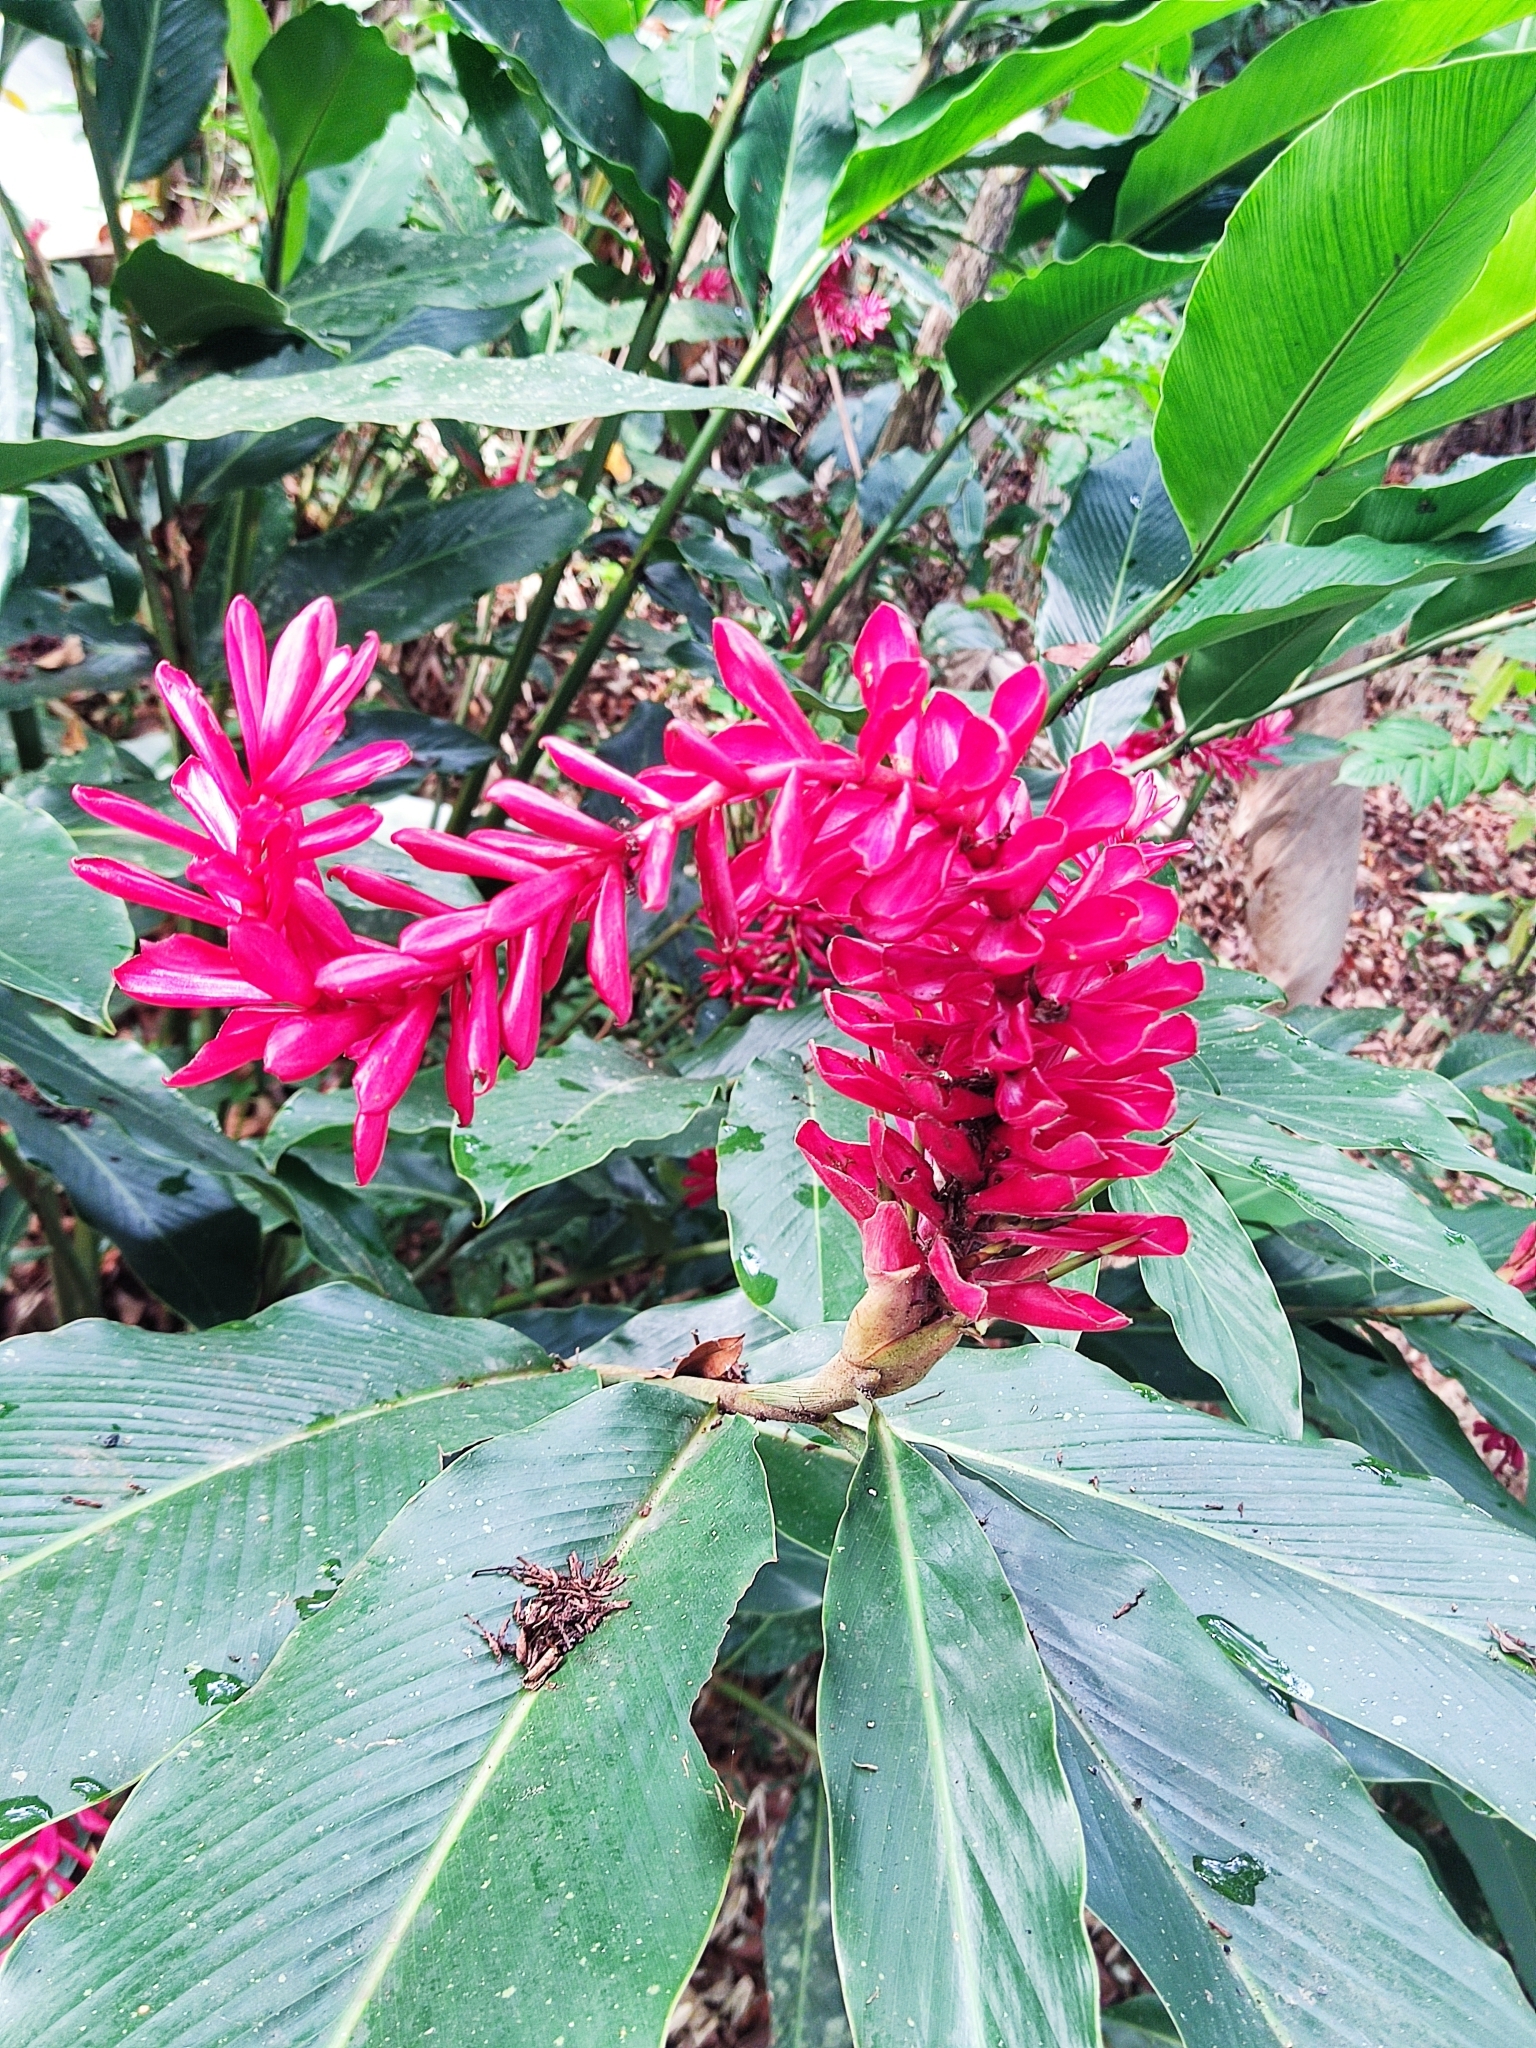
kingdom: Plantae
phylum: Tracheophyta
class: Liliopsida
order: Zingiberales
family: Zingiberaceae
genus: Alpinia
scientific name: Alpinia purpurata
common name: Red ginger
